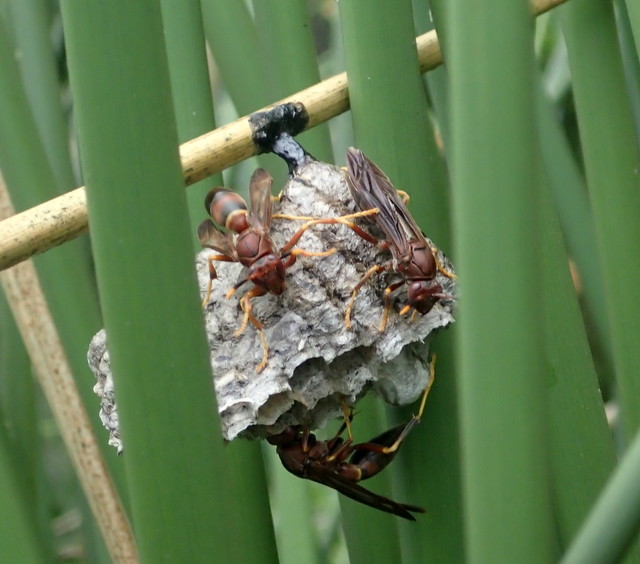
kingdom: Animalia
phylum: Arthropoda
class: Insecta
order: Hymenoptera
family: Eumenidae
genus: Polistes
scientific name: Polistes annularis
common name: Ringed paper wasp
